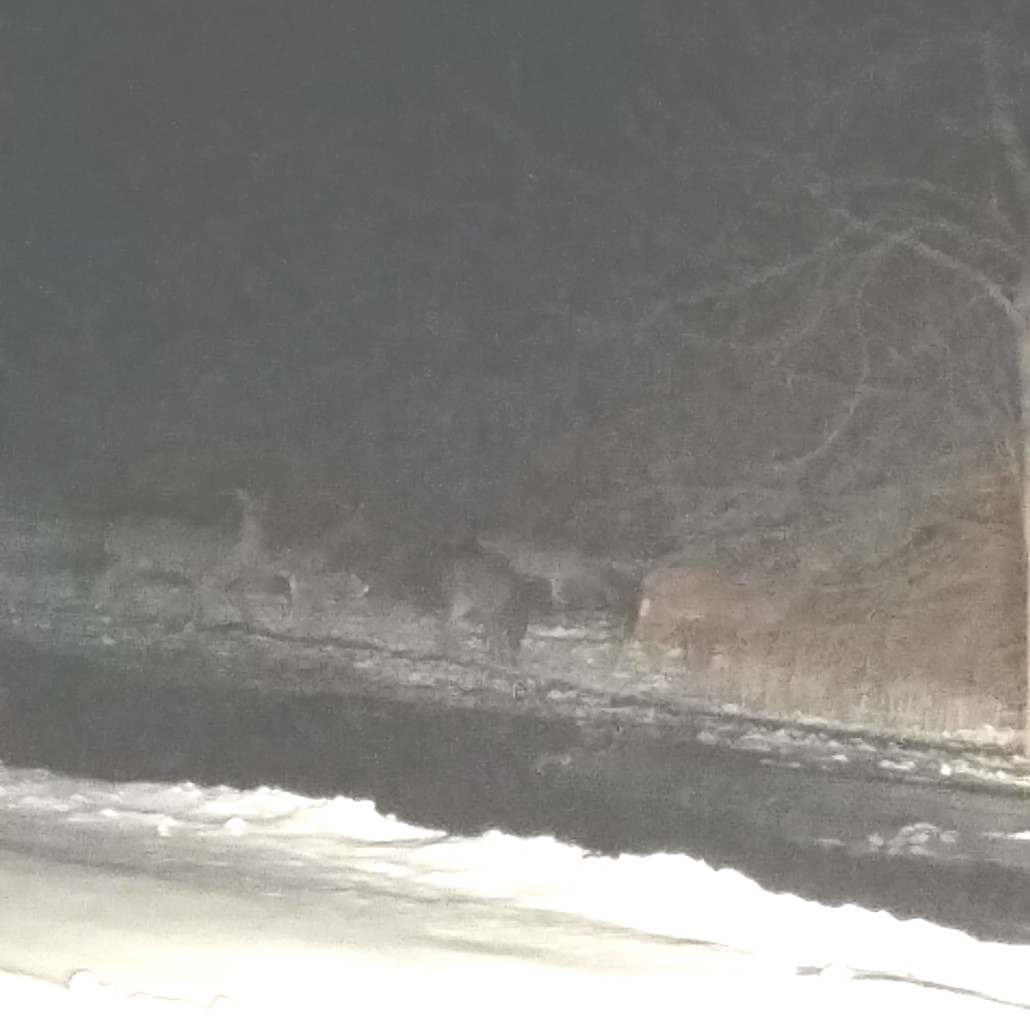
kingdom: Animalia
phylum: Chordata
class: Mammalia
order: Artiodactyla
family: Cervidae
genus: Odocoileus
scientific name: Odocoileus virginianus
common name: White-tailed deer
